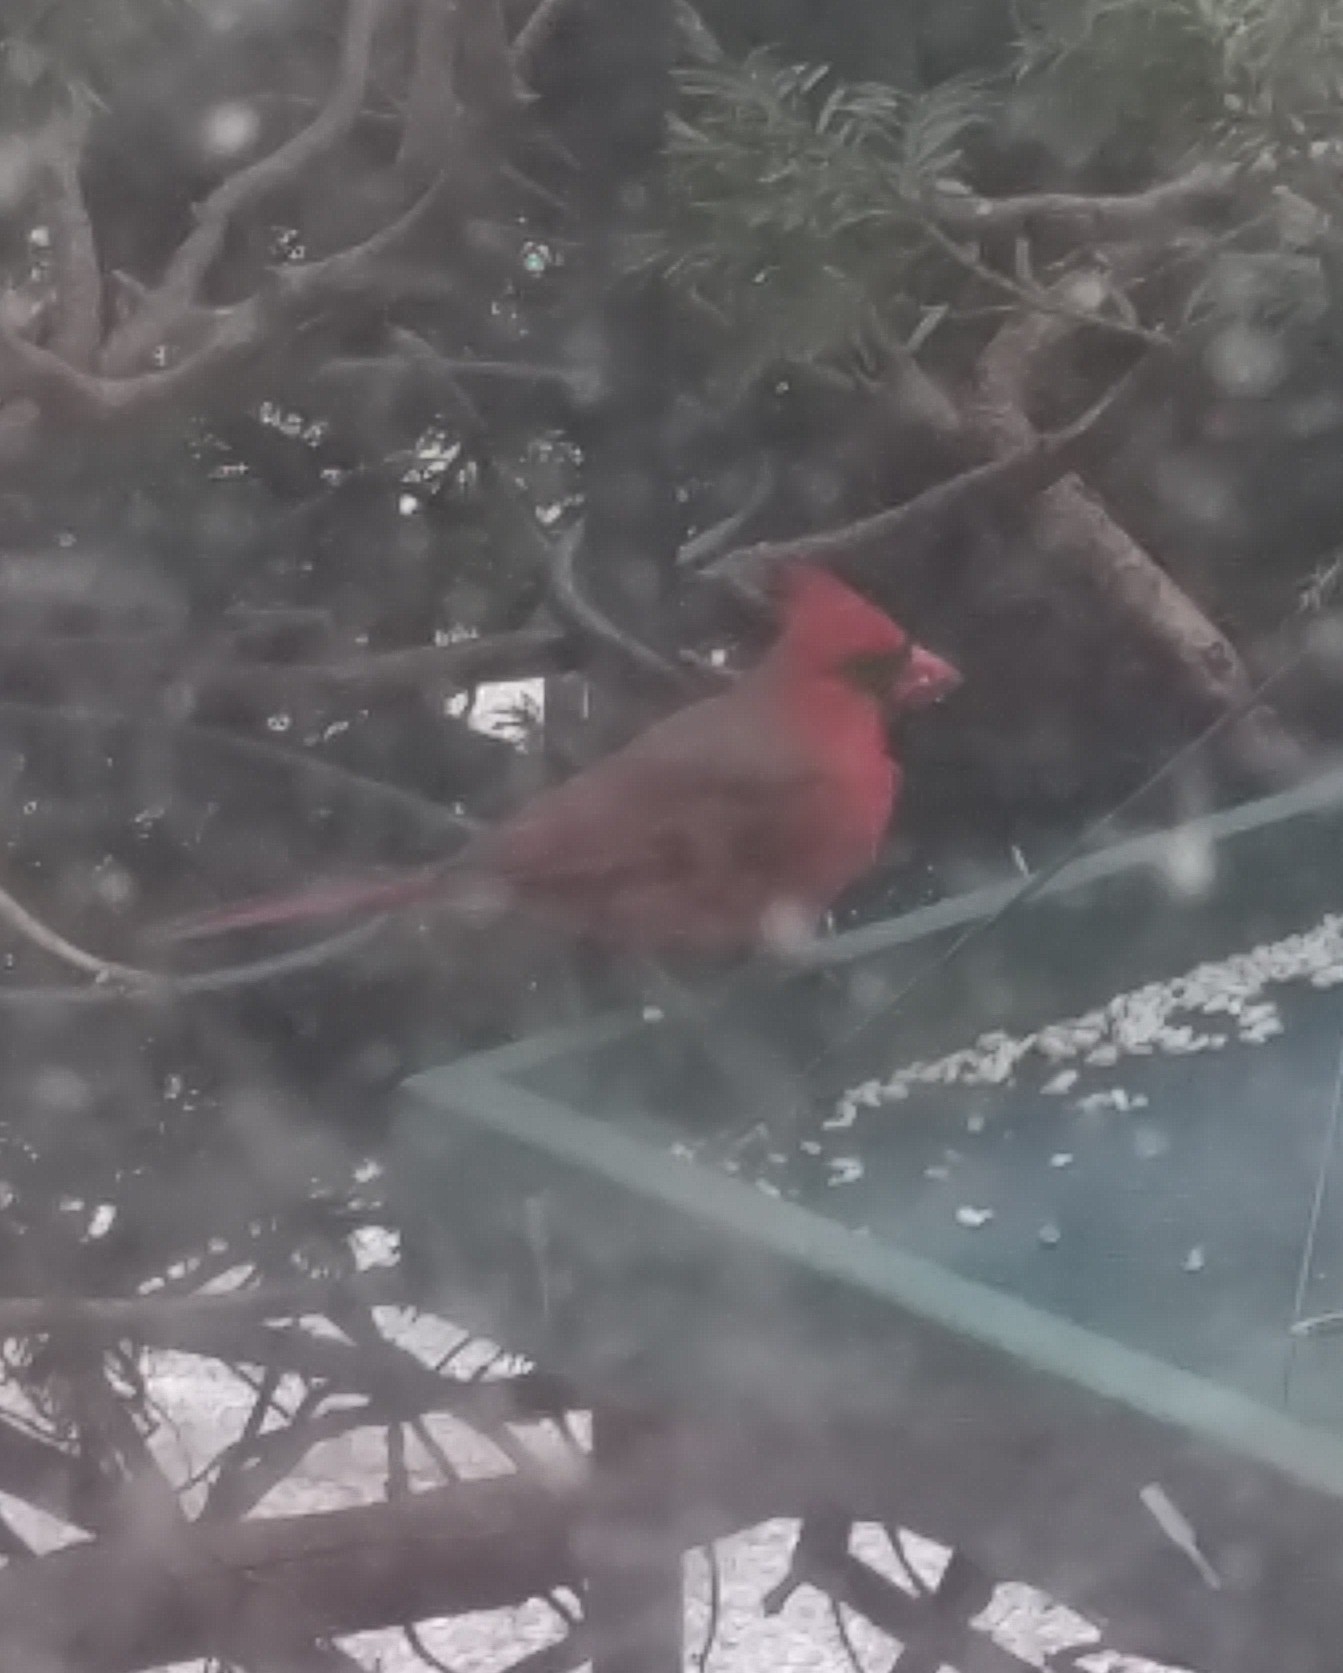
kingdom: Animalia
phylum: Chordata
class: Aves
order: Passeriformes
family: Cardinalidae
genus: Cardinalis
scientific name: Cardinalis cardinalis
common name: Northern cardinal
